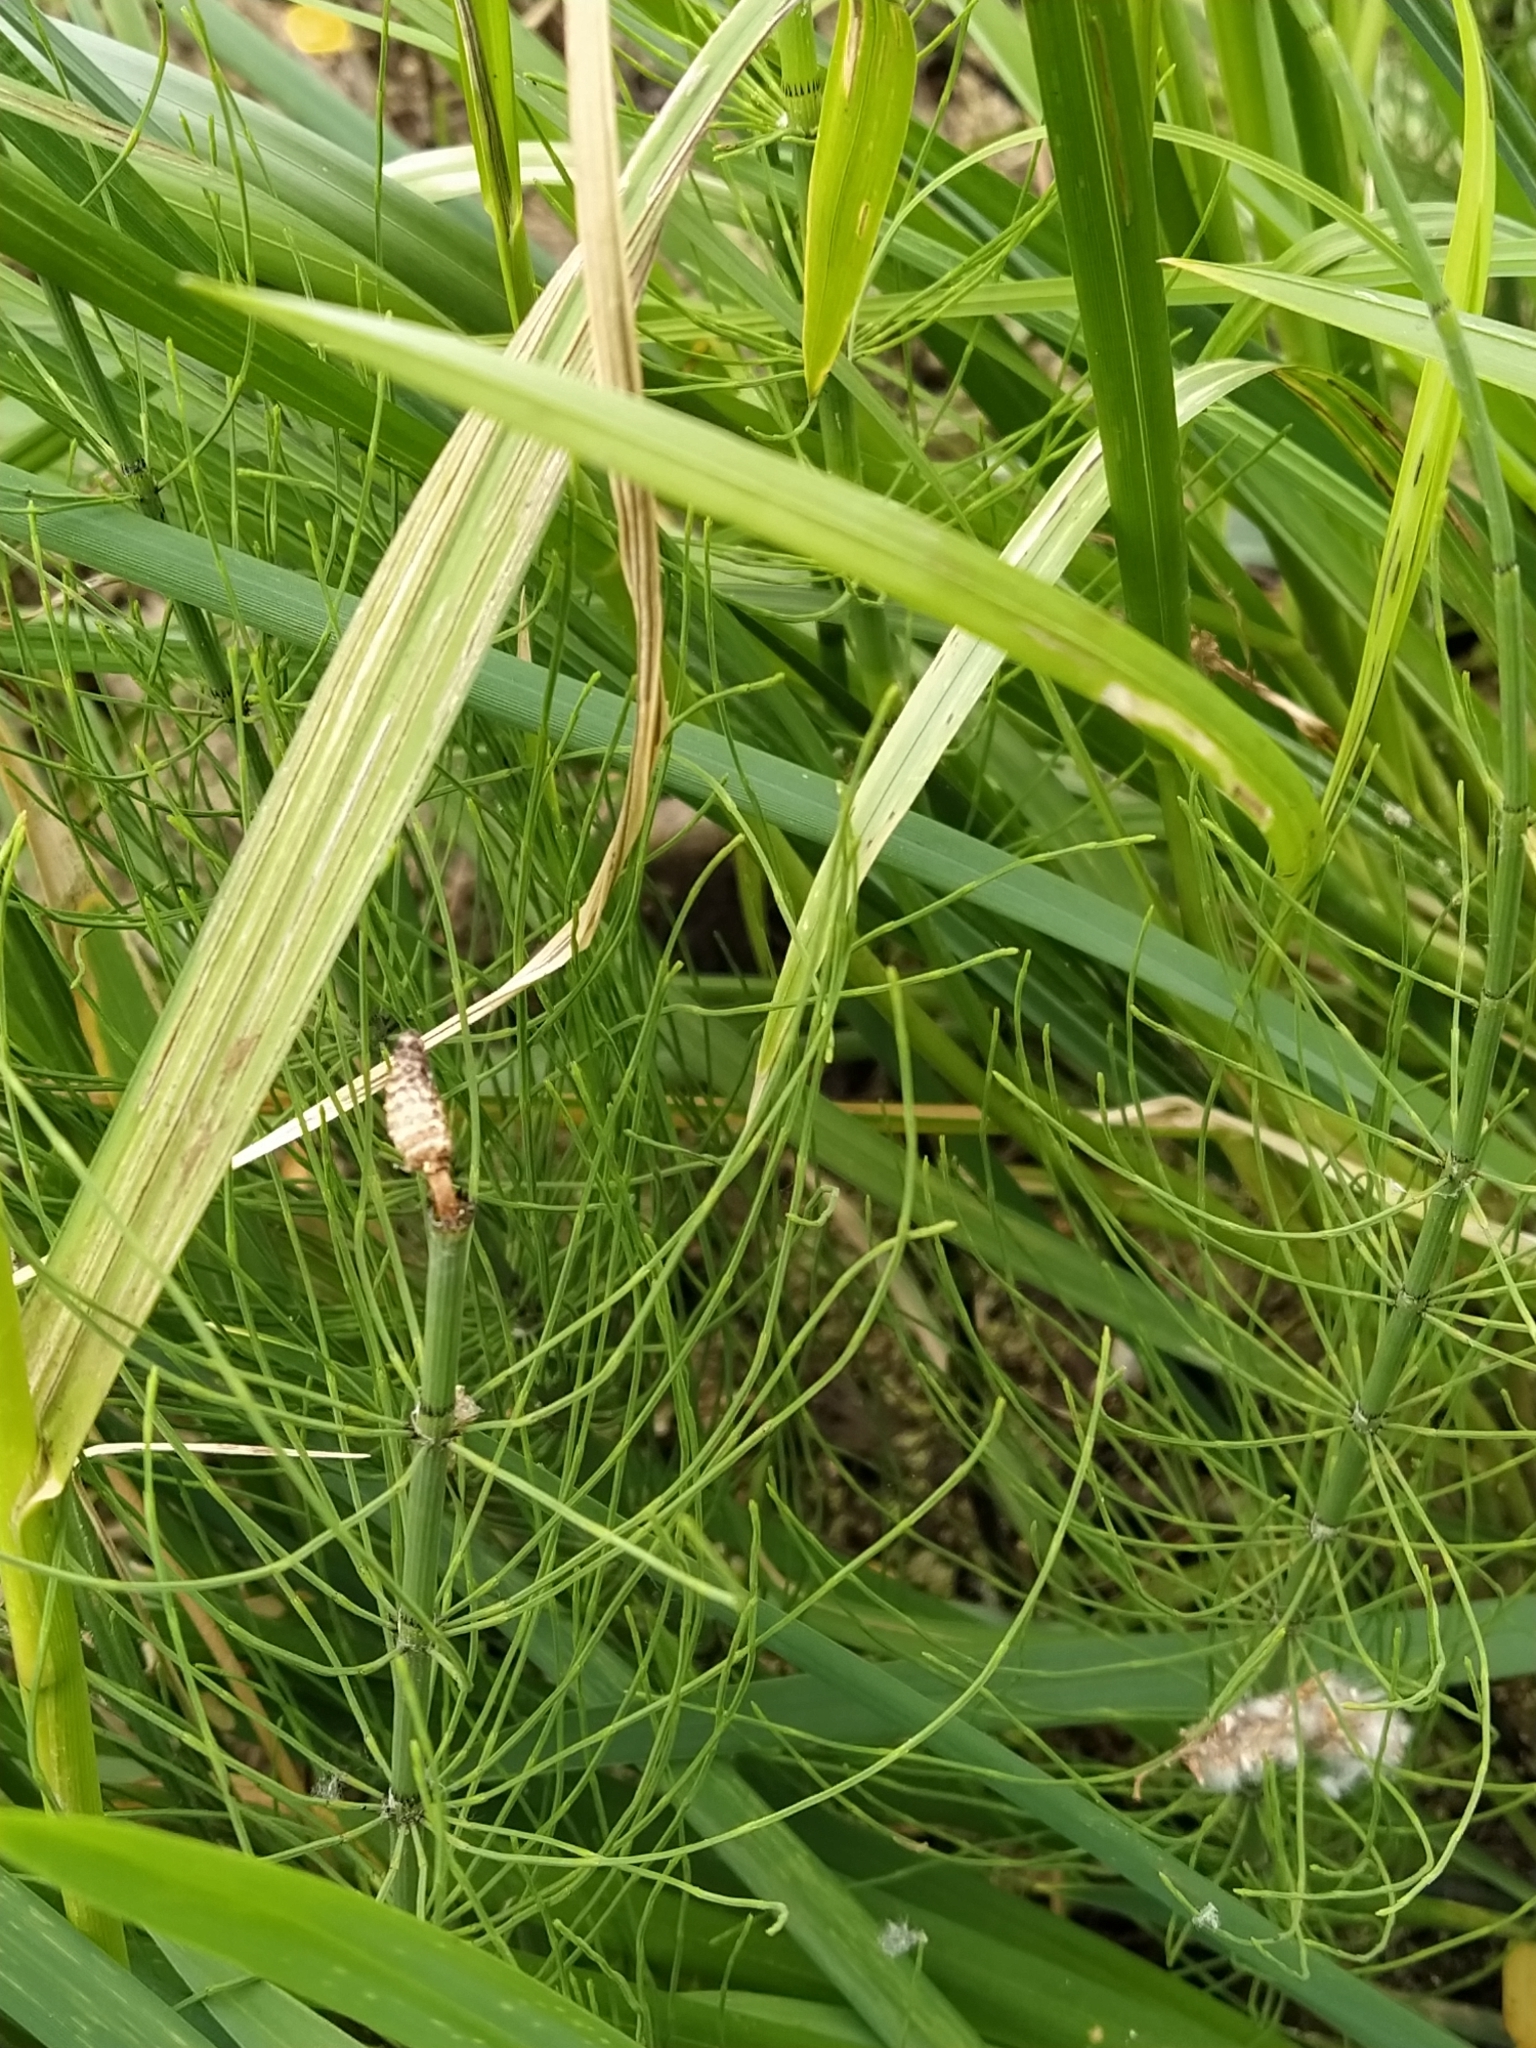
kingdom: Plantae
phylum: Tracheophyta
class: Polypodiopsida
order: Equisetales
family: Equisetaceae
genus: Equisetum
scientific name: Equisetum fluviatile
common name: Water horsetail
